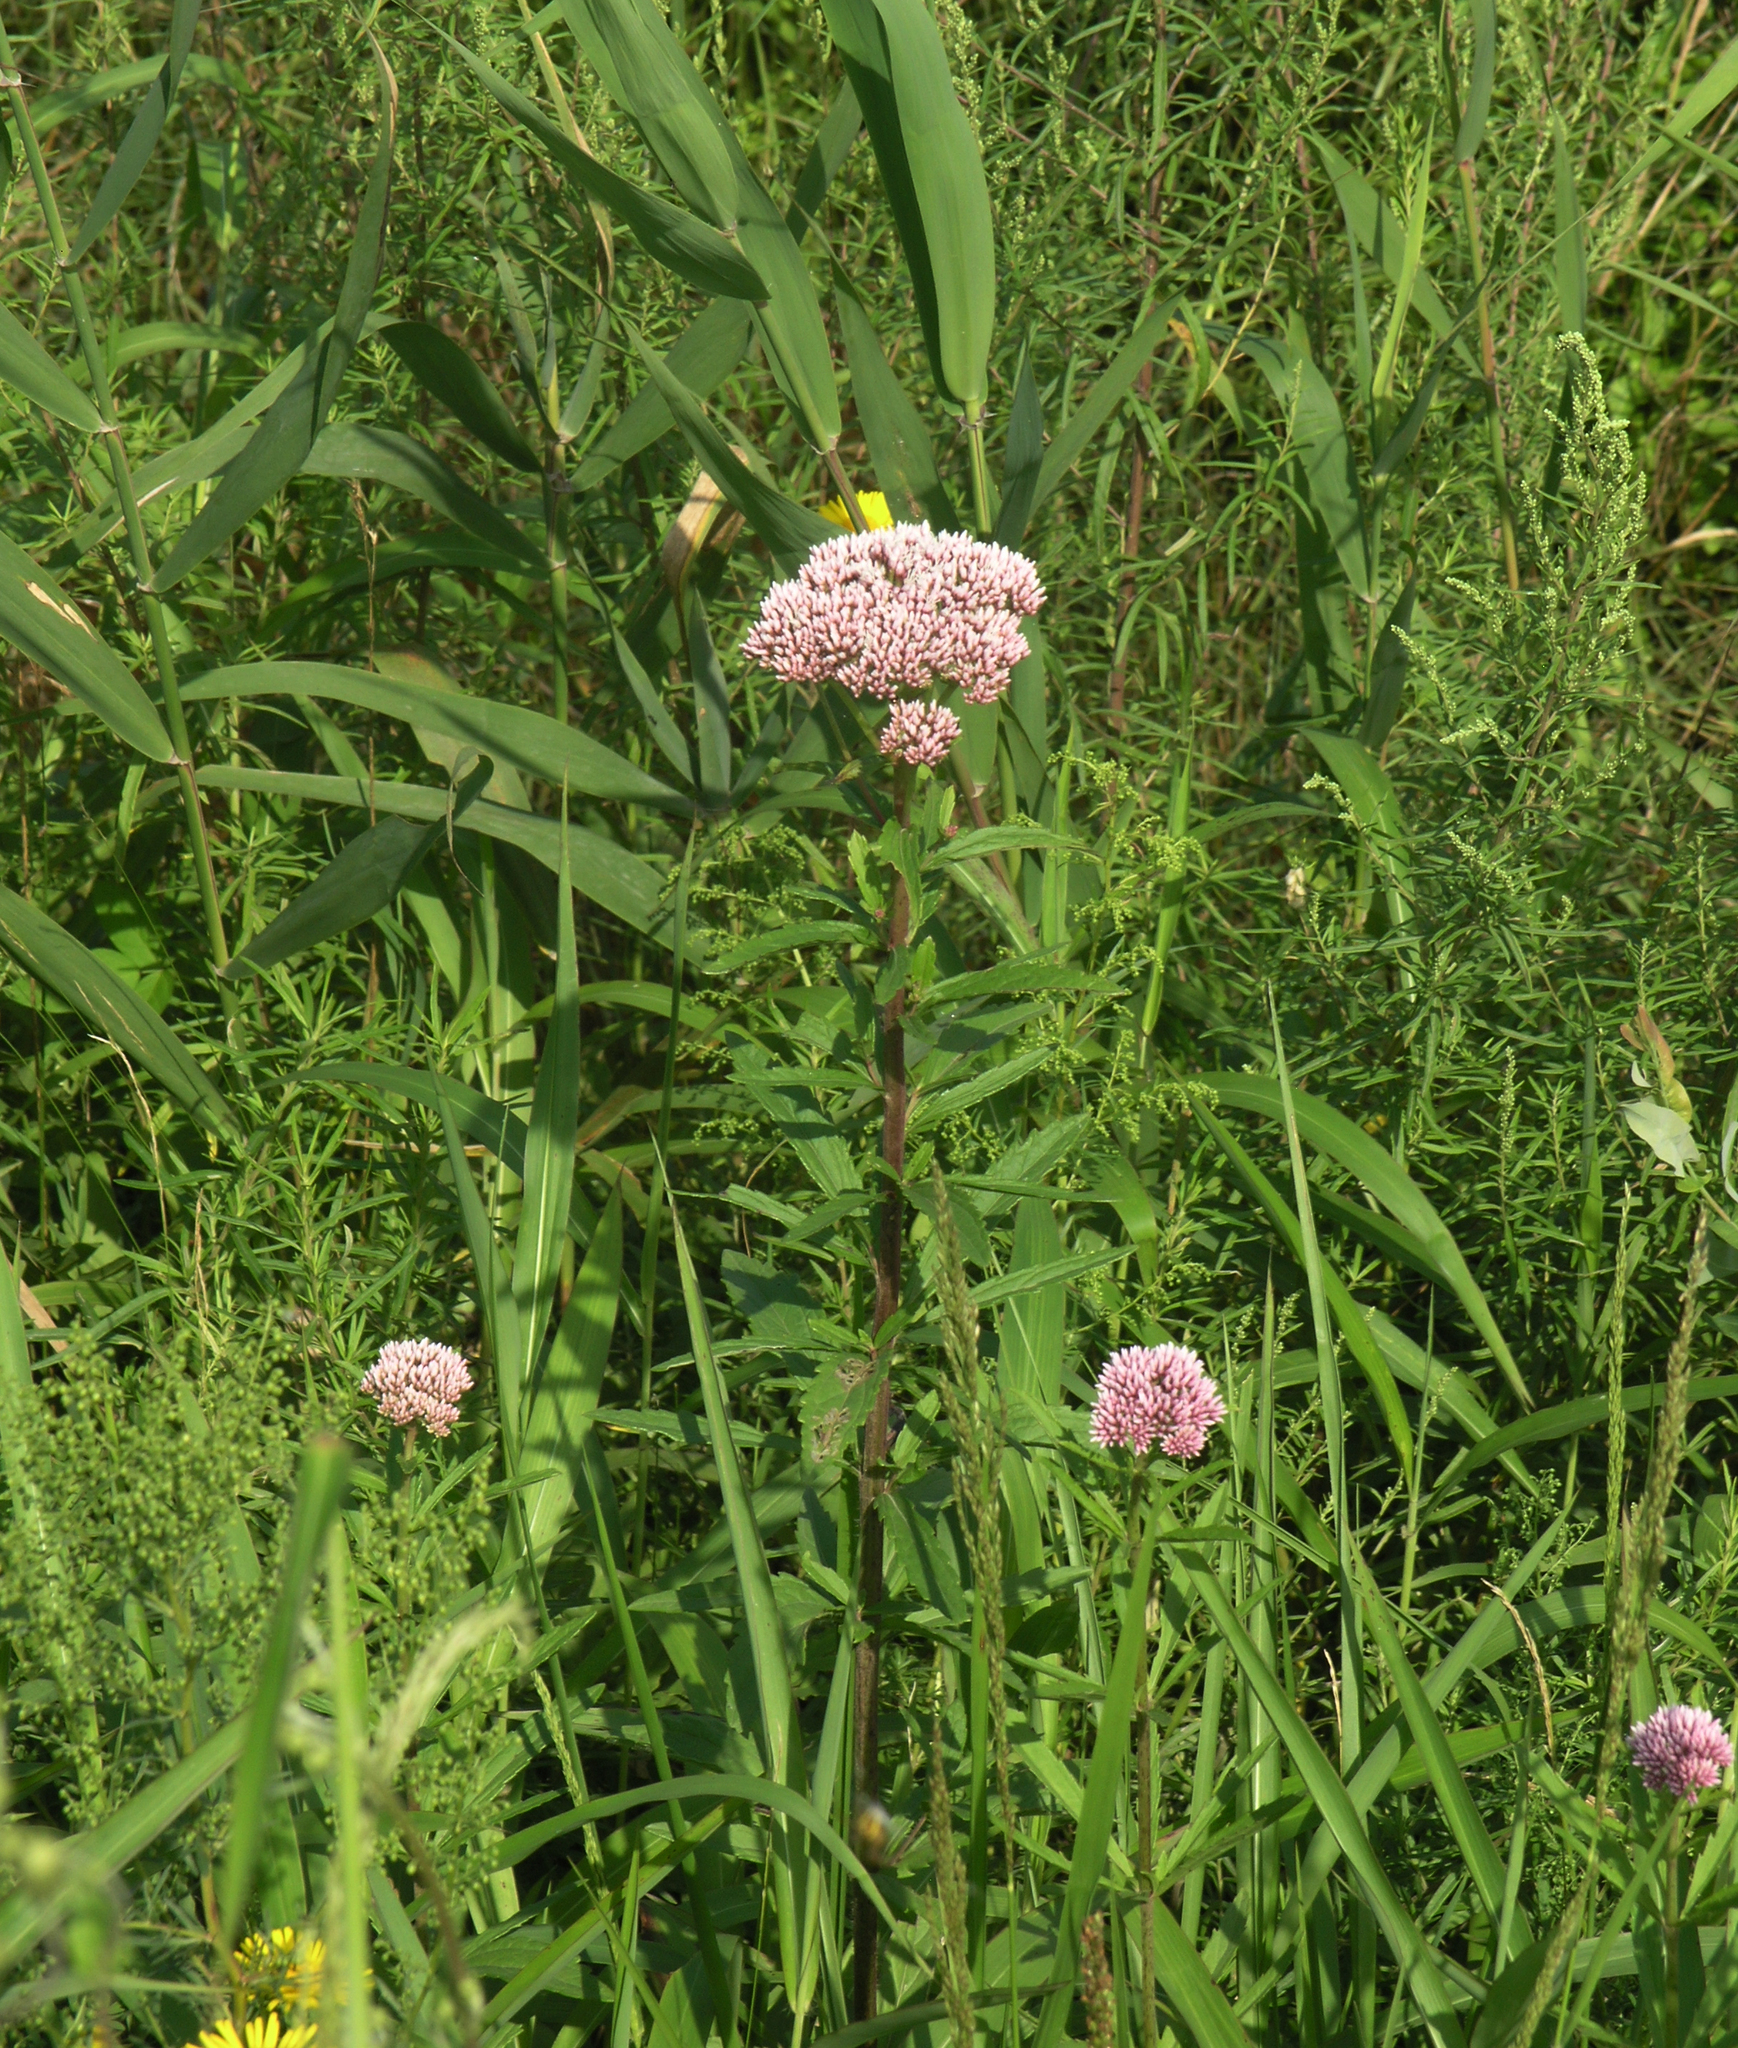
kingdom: Plantae
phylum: Tracheophyta
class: Magnoliopsida
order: Asterales
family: Asteraceae
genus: Eupatorium
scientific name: Eupatorium lindleyanum
